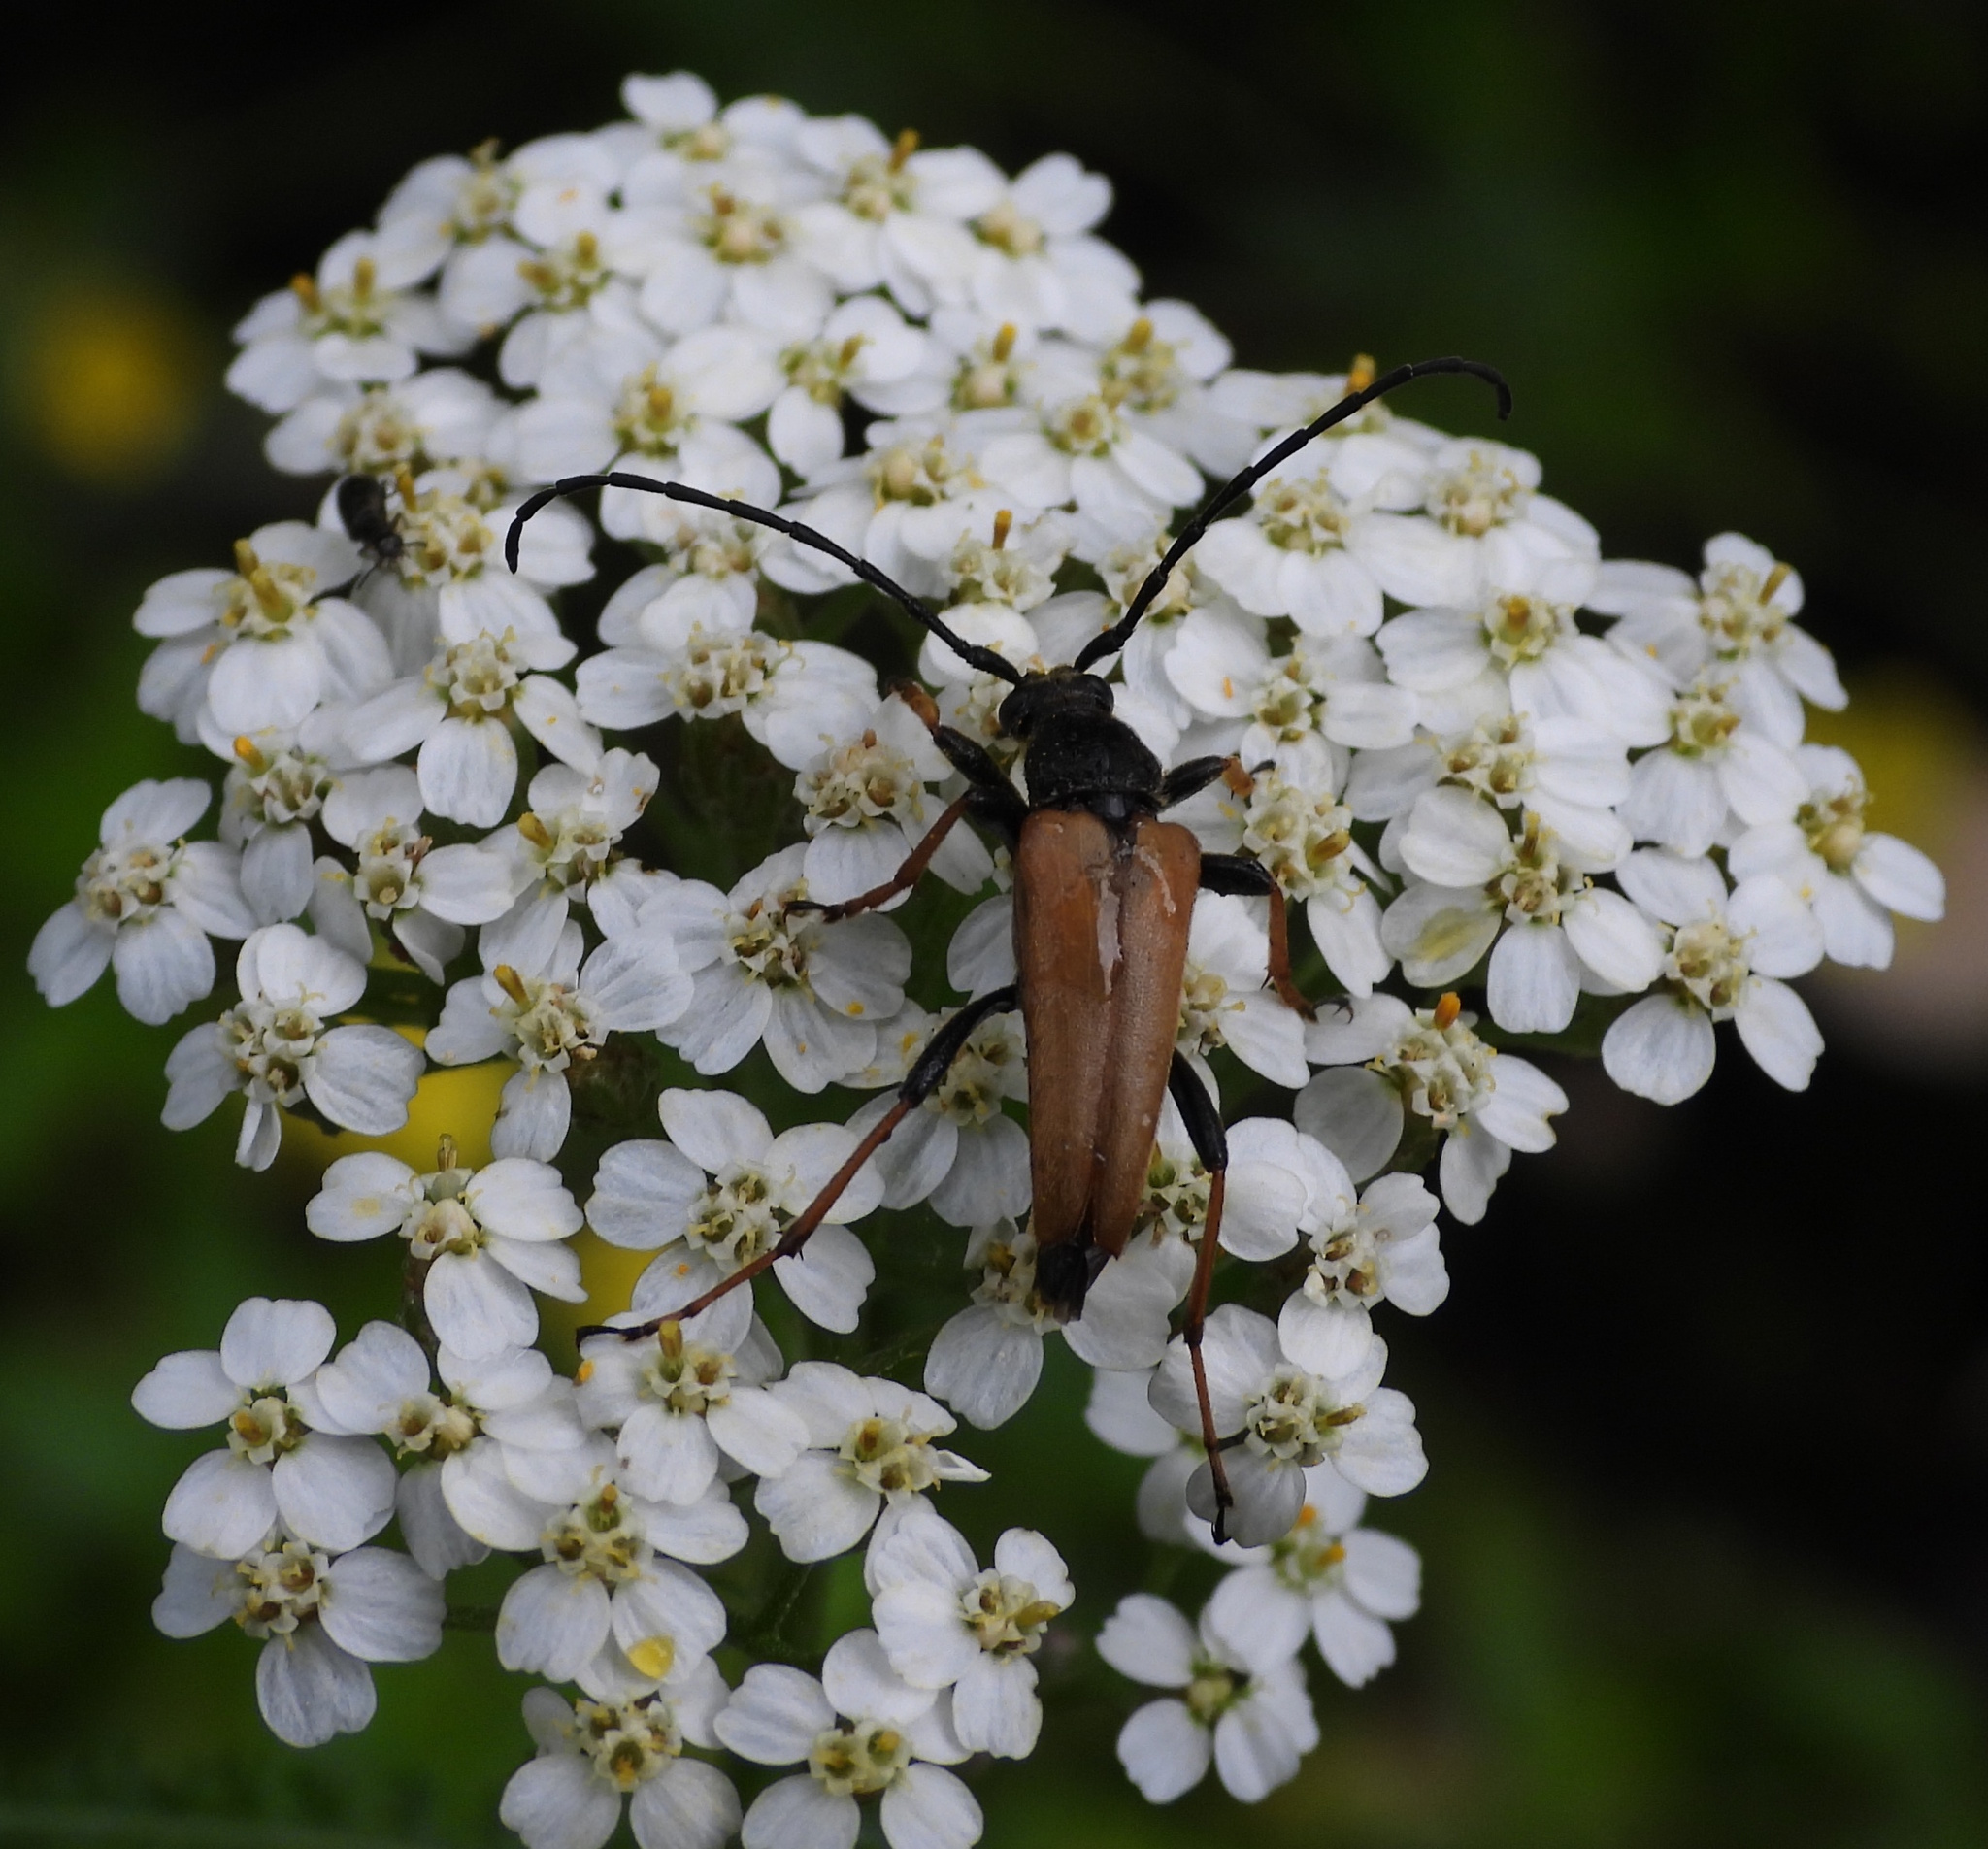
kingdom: Animalia
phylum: Arthropoda
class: Insecta
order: Coleoptera
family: Cerambycidae
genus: Stictoleptura
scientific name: Stictoleptura rubra
